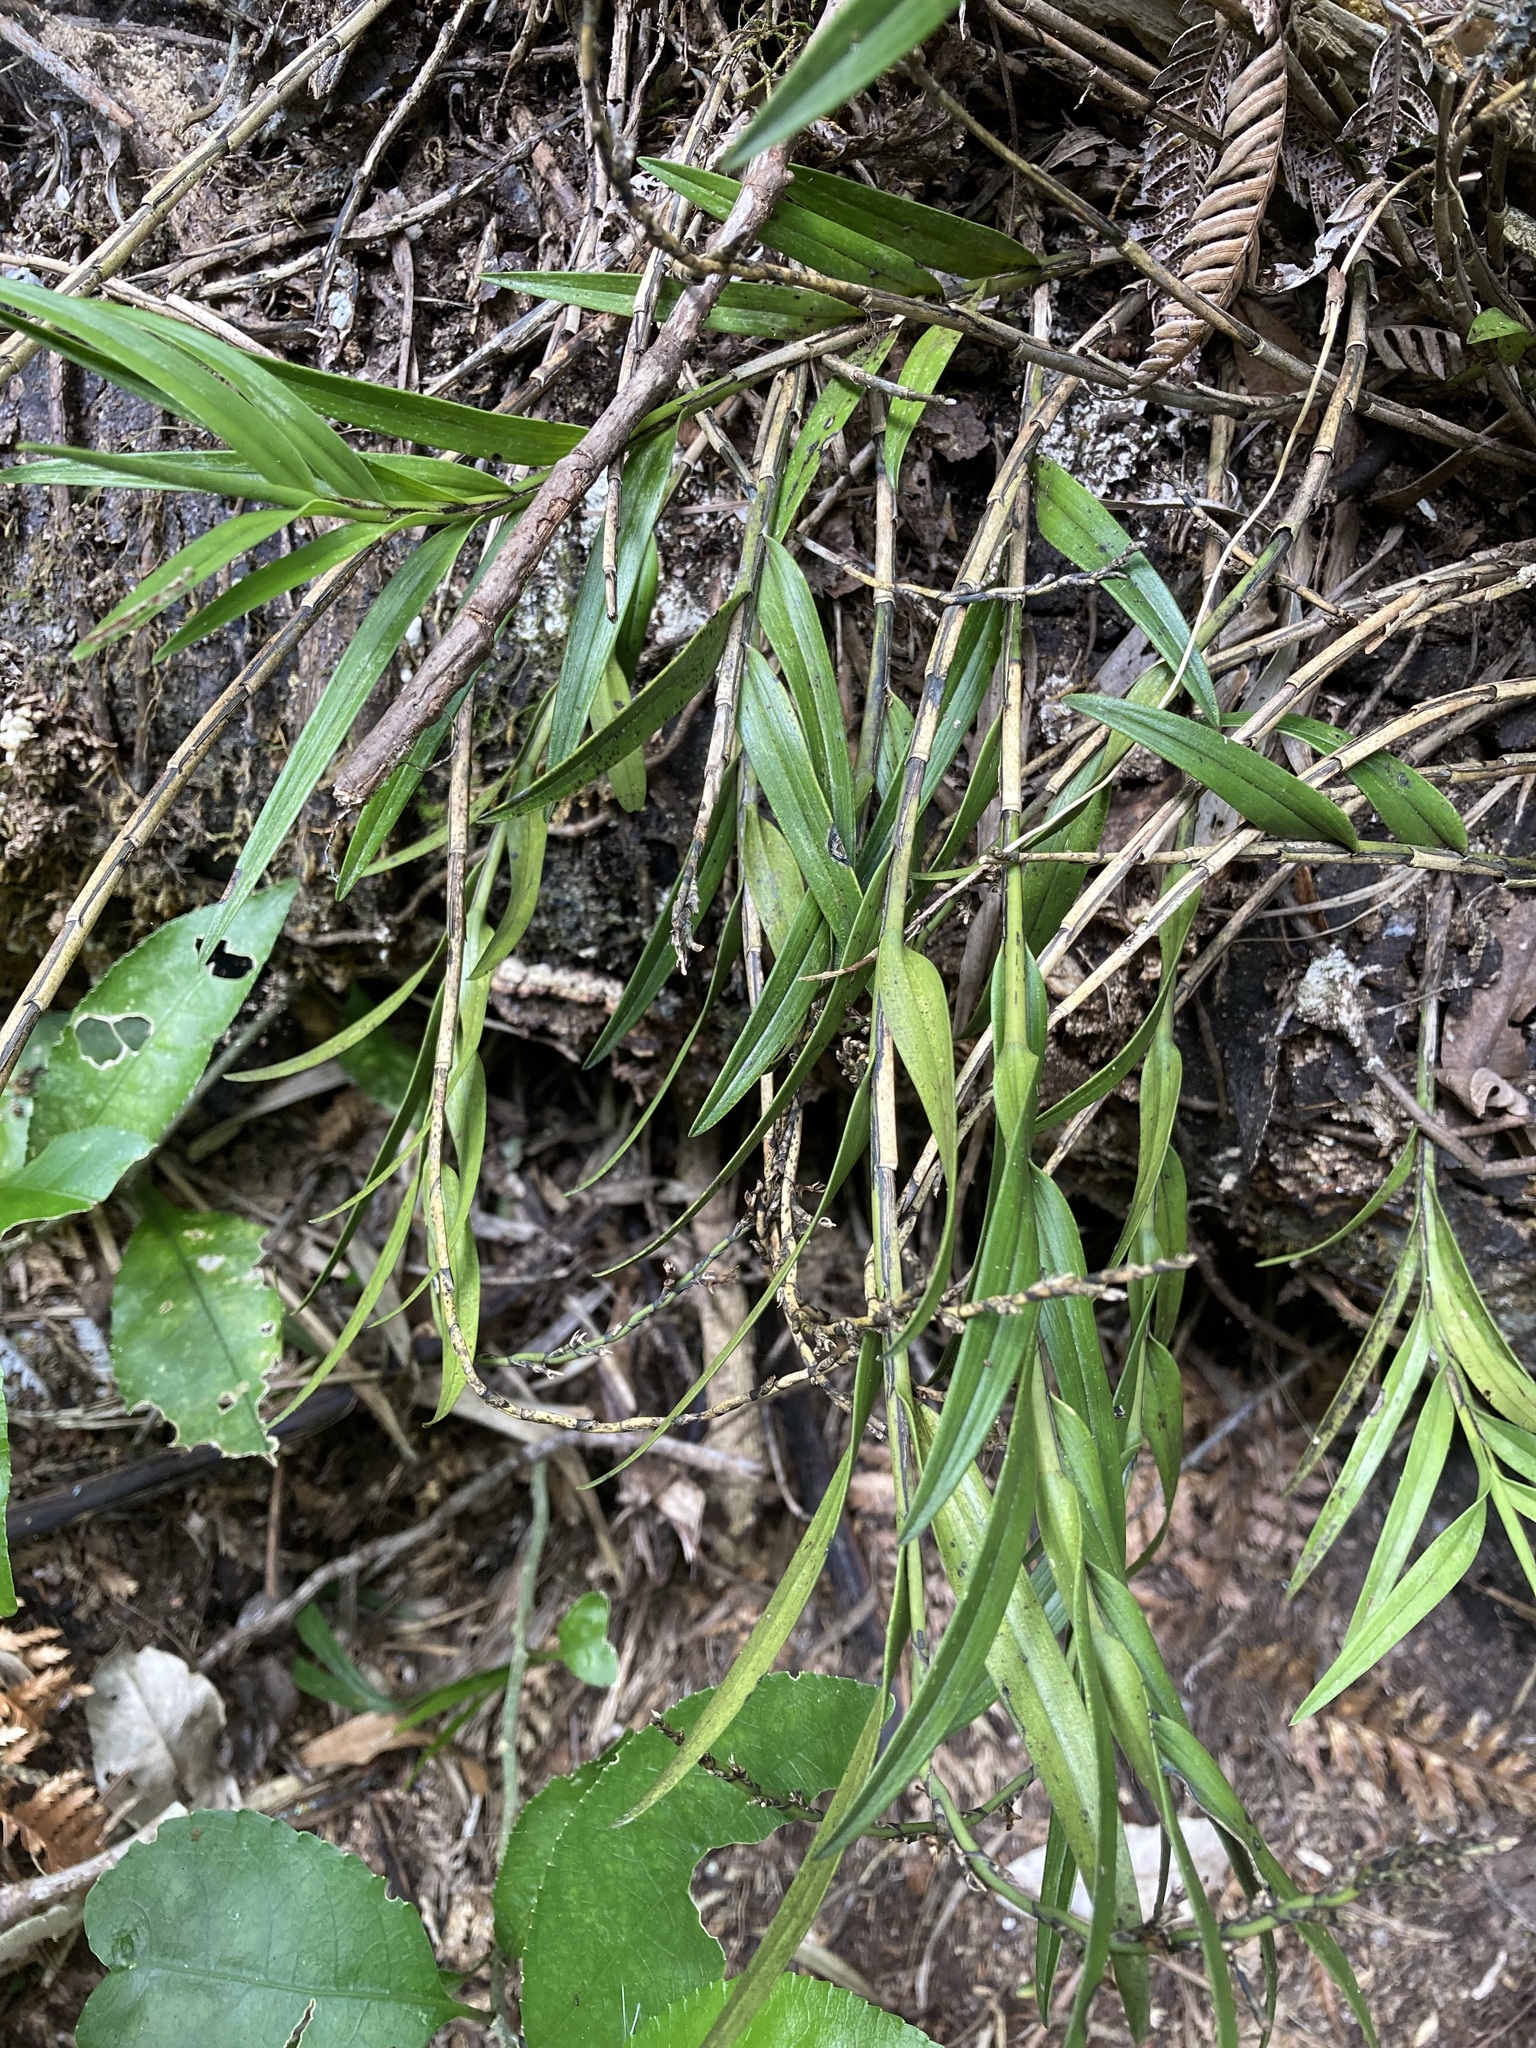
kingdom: Plantae
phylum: Tracheophyta
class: Liliopsida
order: Asparagales
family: Orchidaceae
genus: Earina
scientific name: Earina autumnalis
